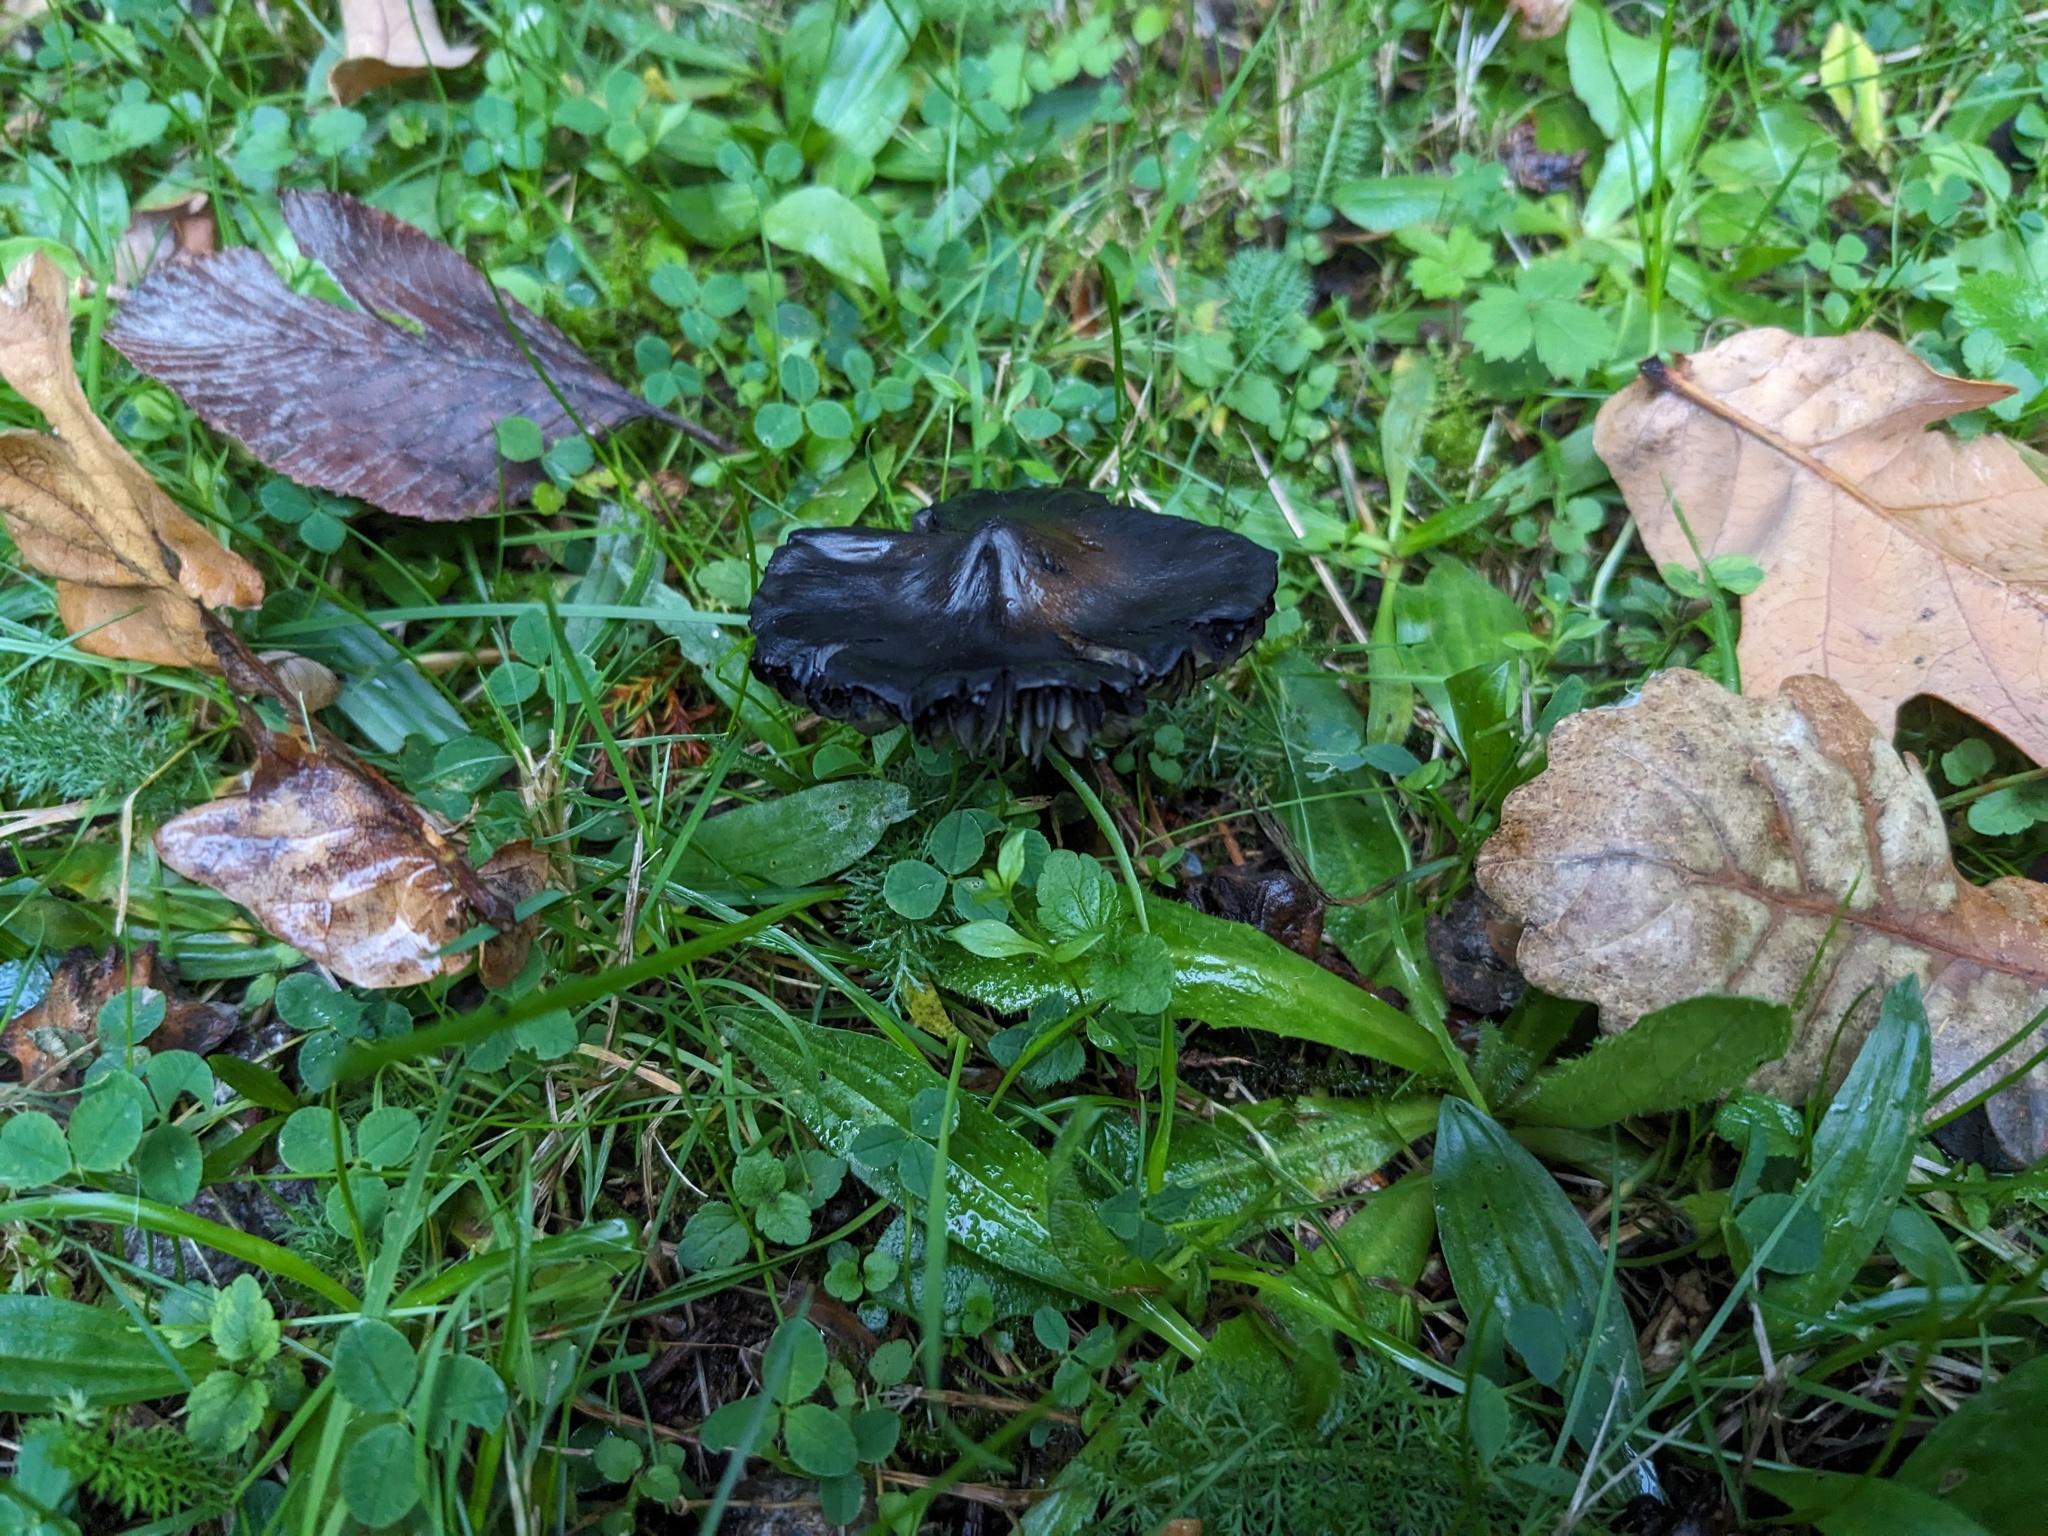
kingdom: Fungi
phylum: Basidiomycota
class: Agaricomycetes
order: Agaricales
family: Hygrophoraceae
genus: Hygrocybe
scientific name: Hygrocybe conica
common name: Blackening wax-cap
